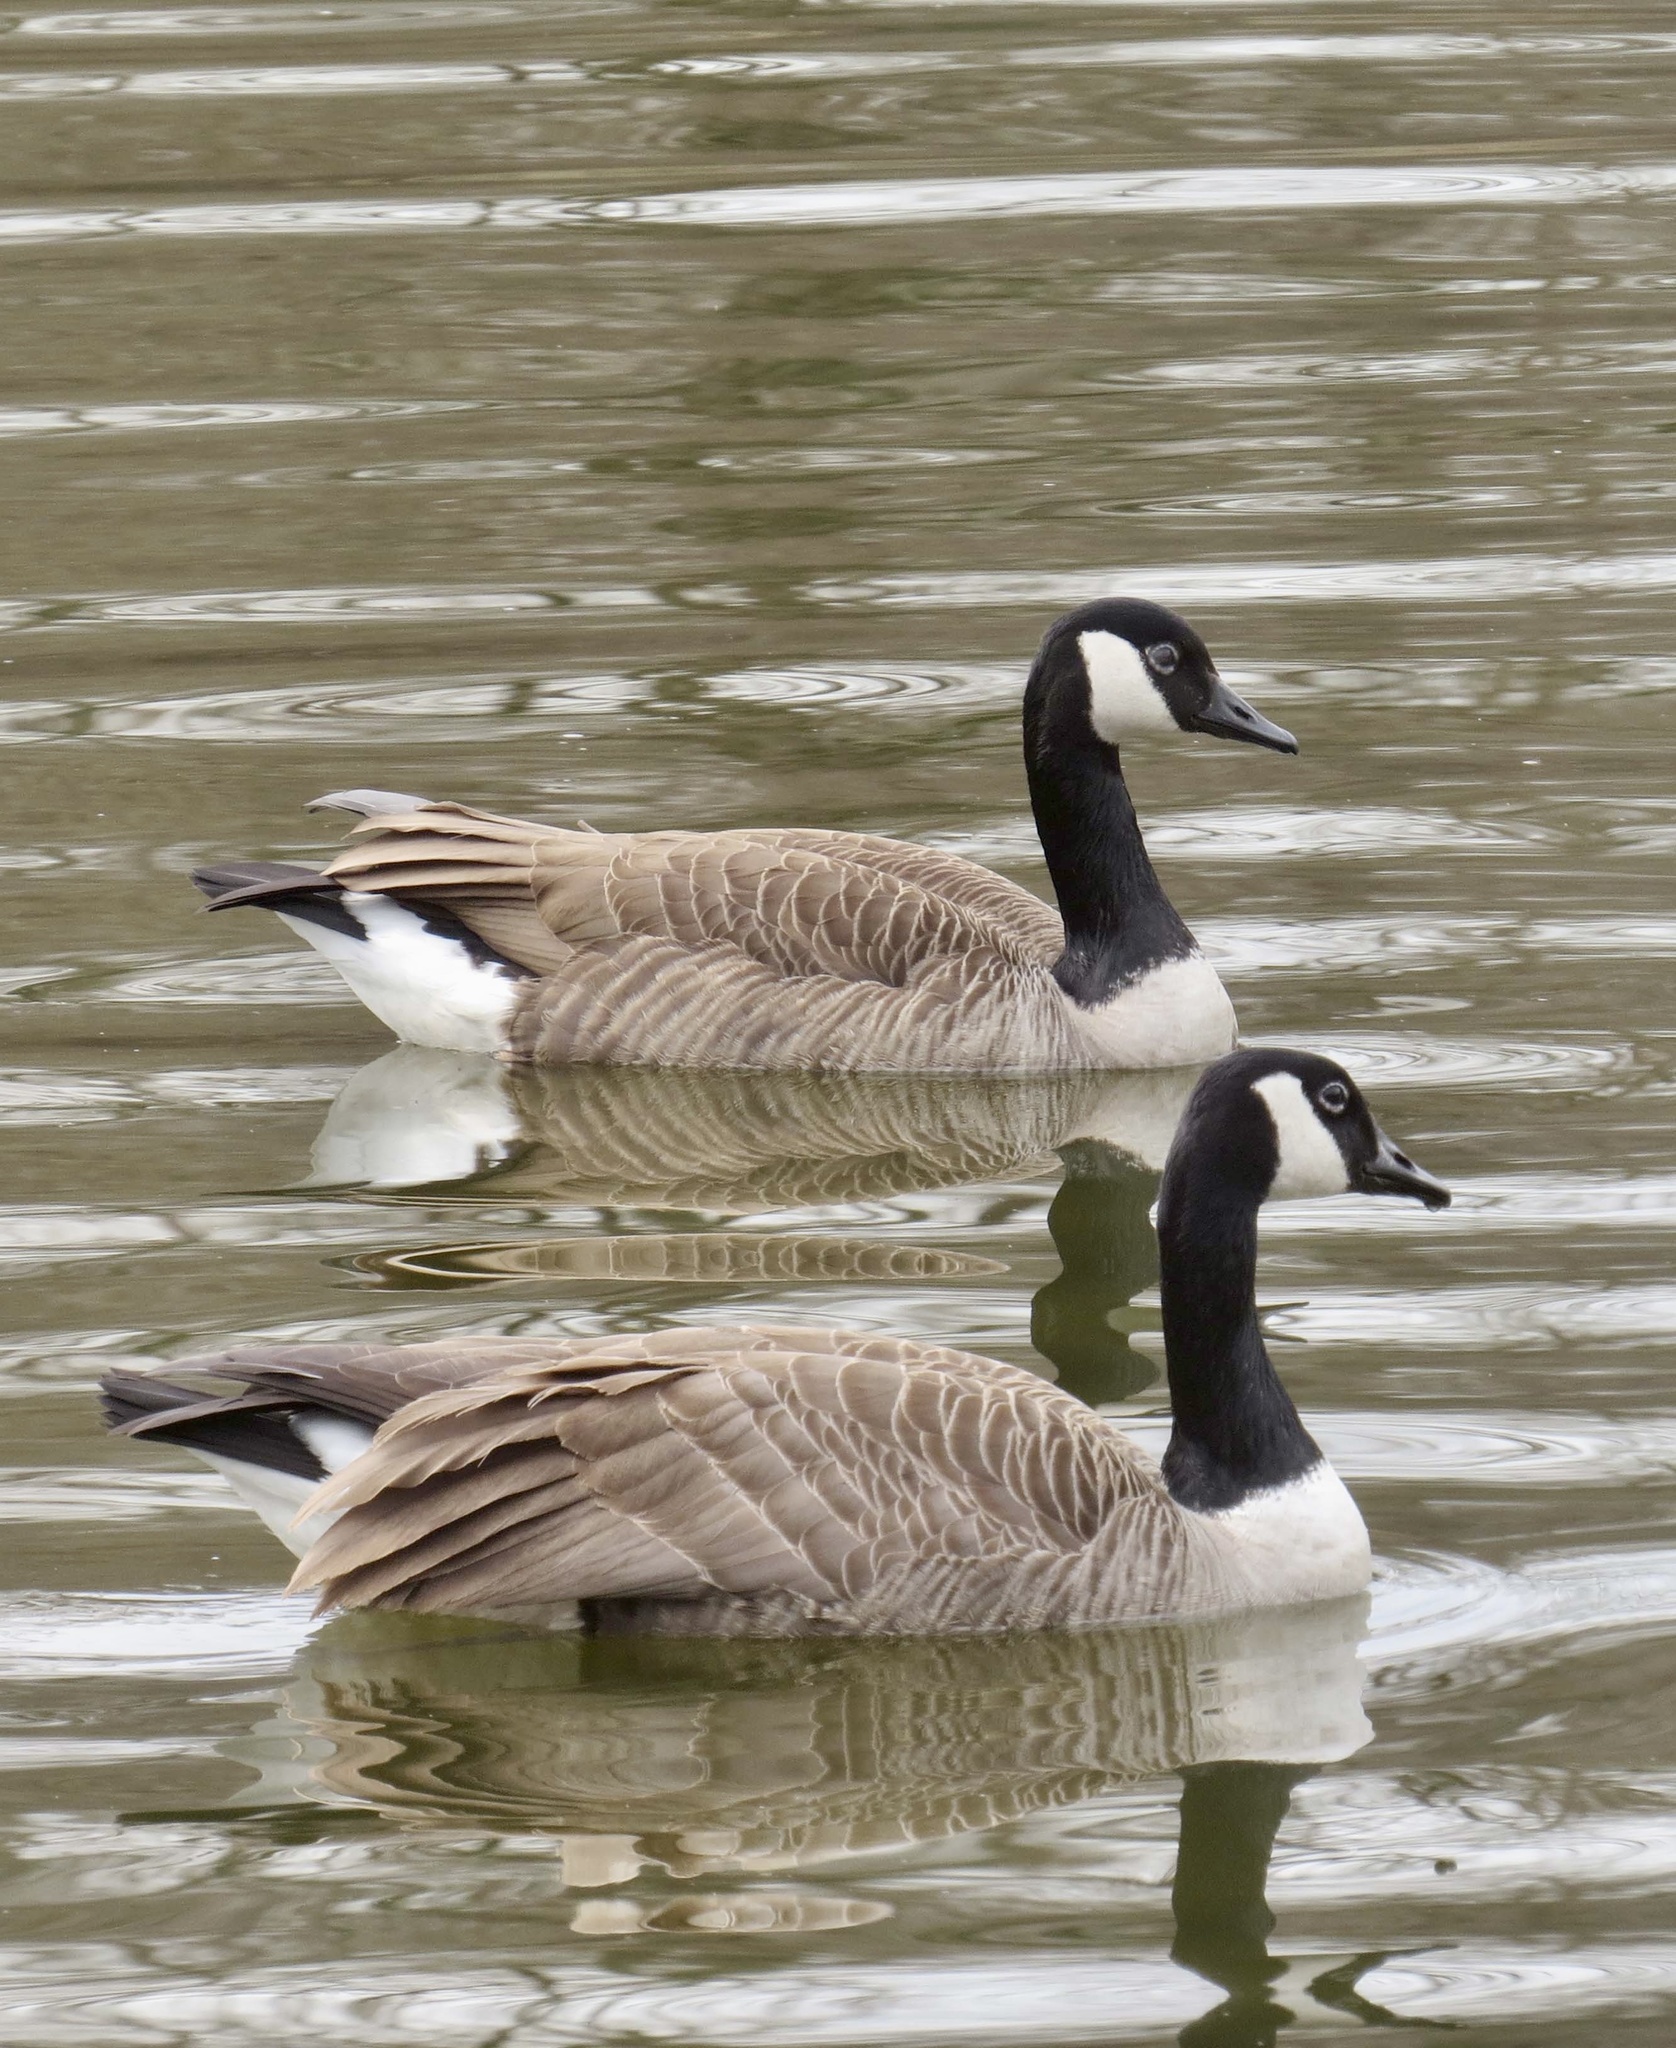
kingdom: Animalia
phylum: Chordata
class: Aves
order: Anseriformes
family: Anatidae
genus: Branta
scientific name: Branta canadensis
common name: Canada goose
